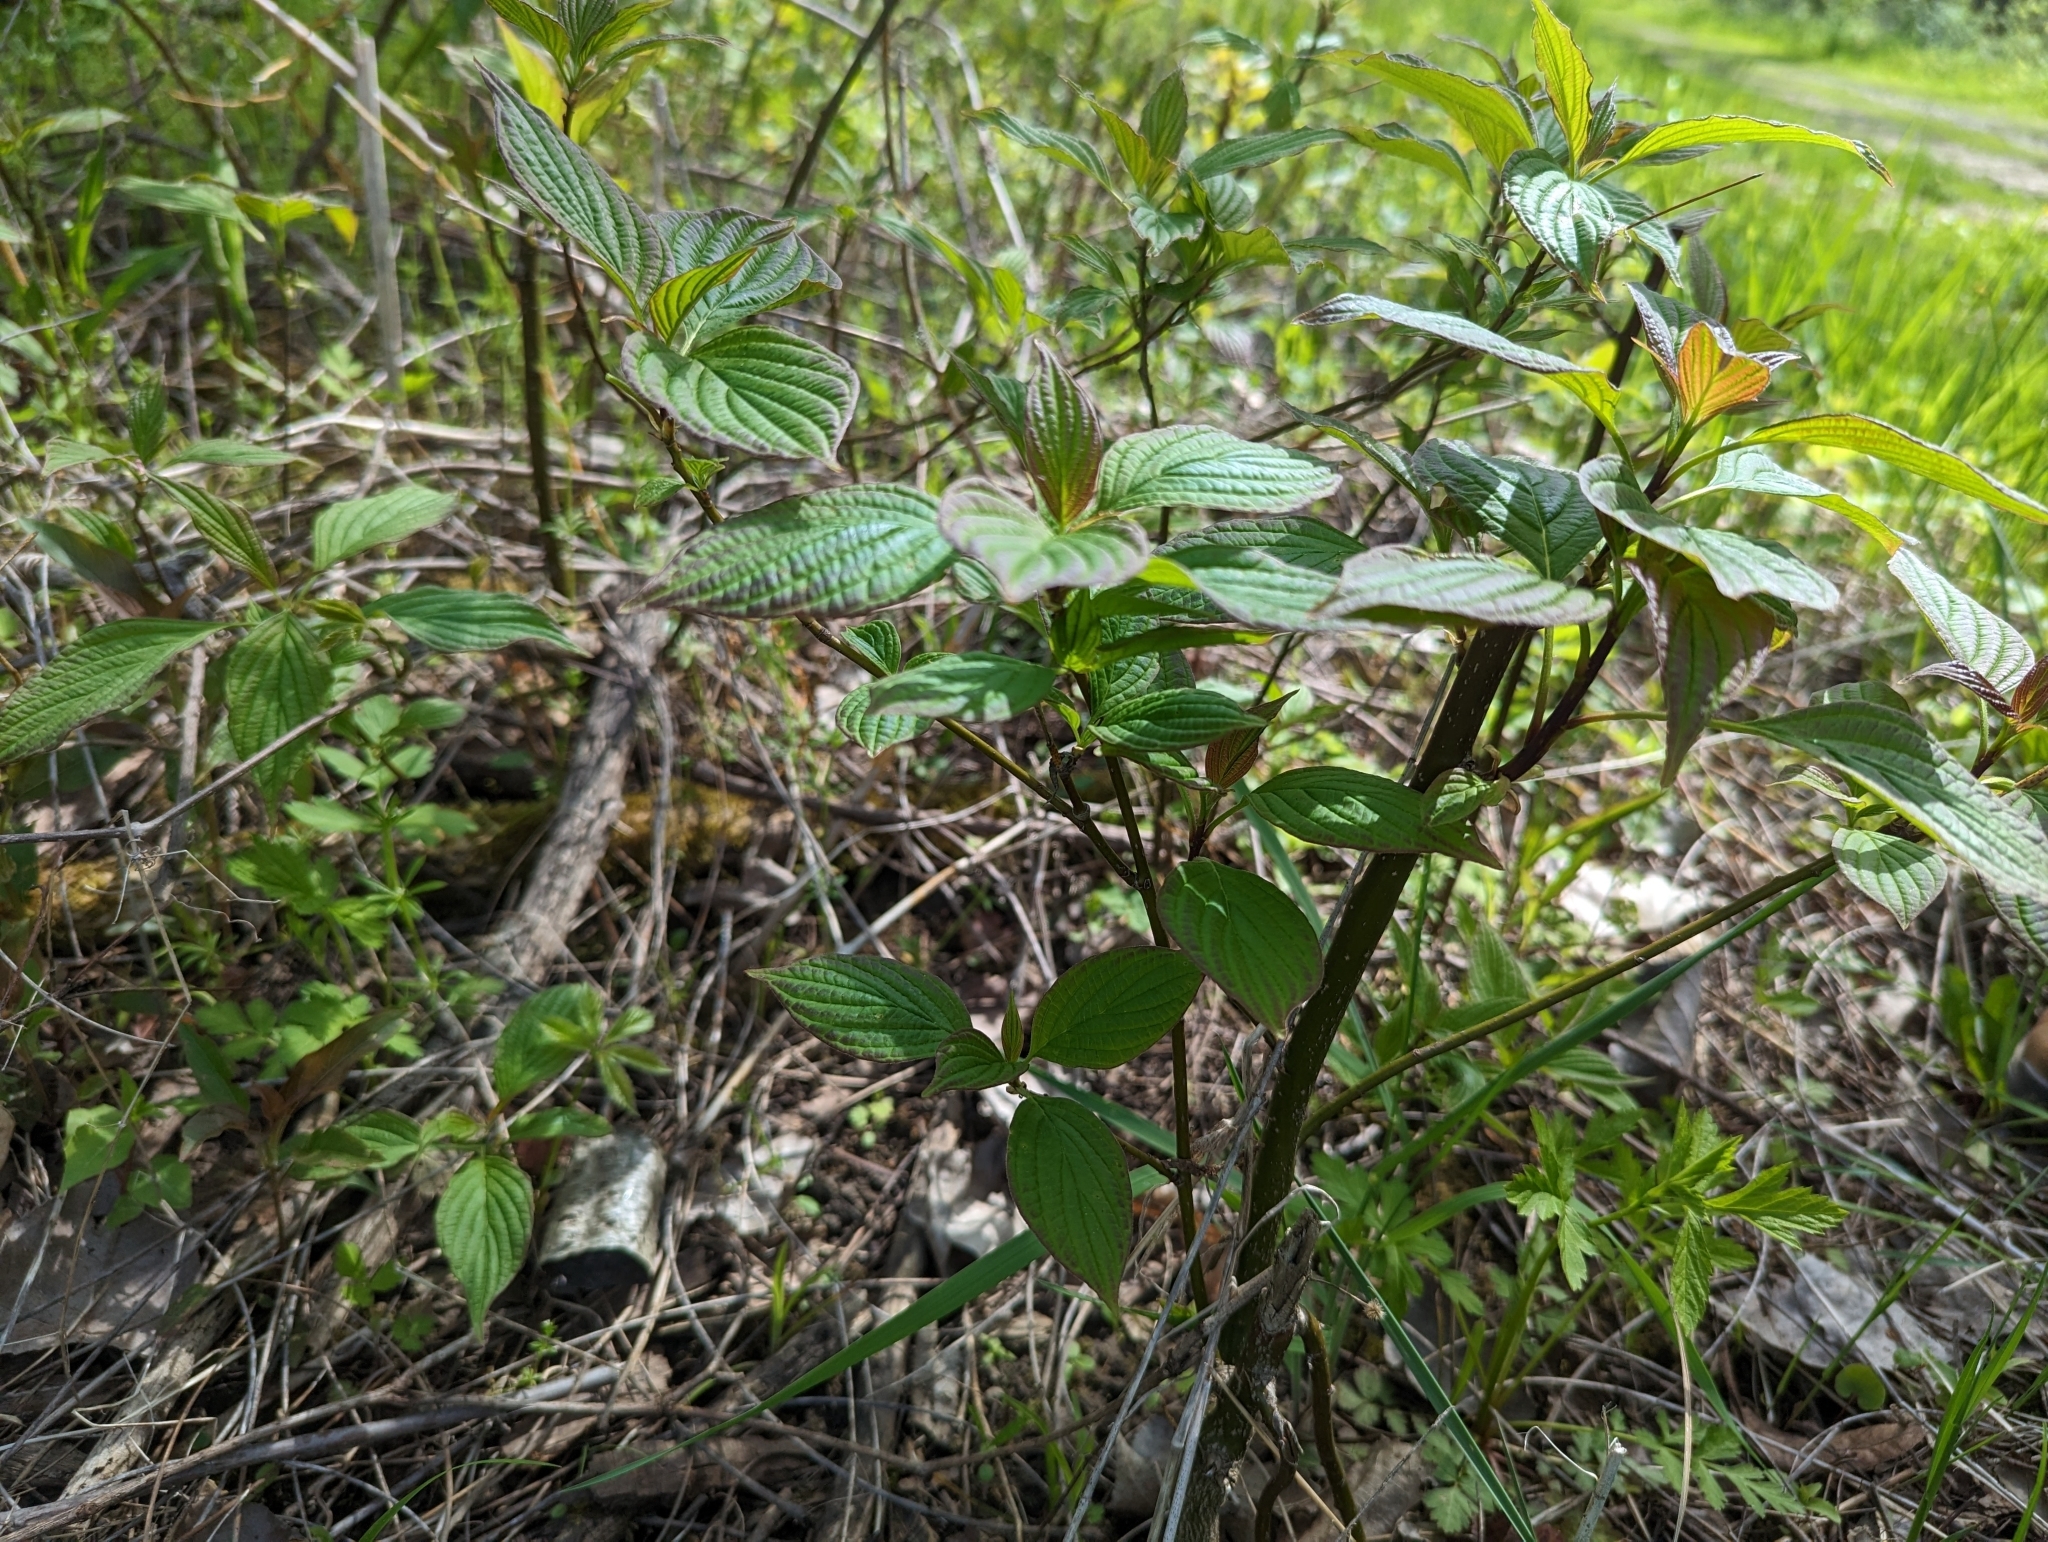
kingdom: Plantae
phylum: Tracheophyta
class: Magnoliopsida
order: Cornales
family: Cornaceae
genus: Cornus
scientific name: Cornus alternifolia
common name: Pagoda dogwood
